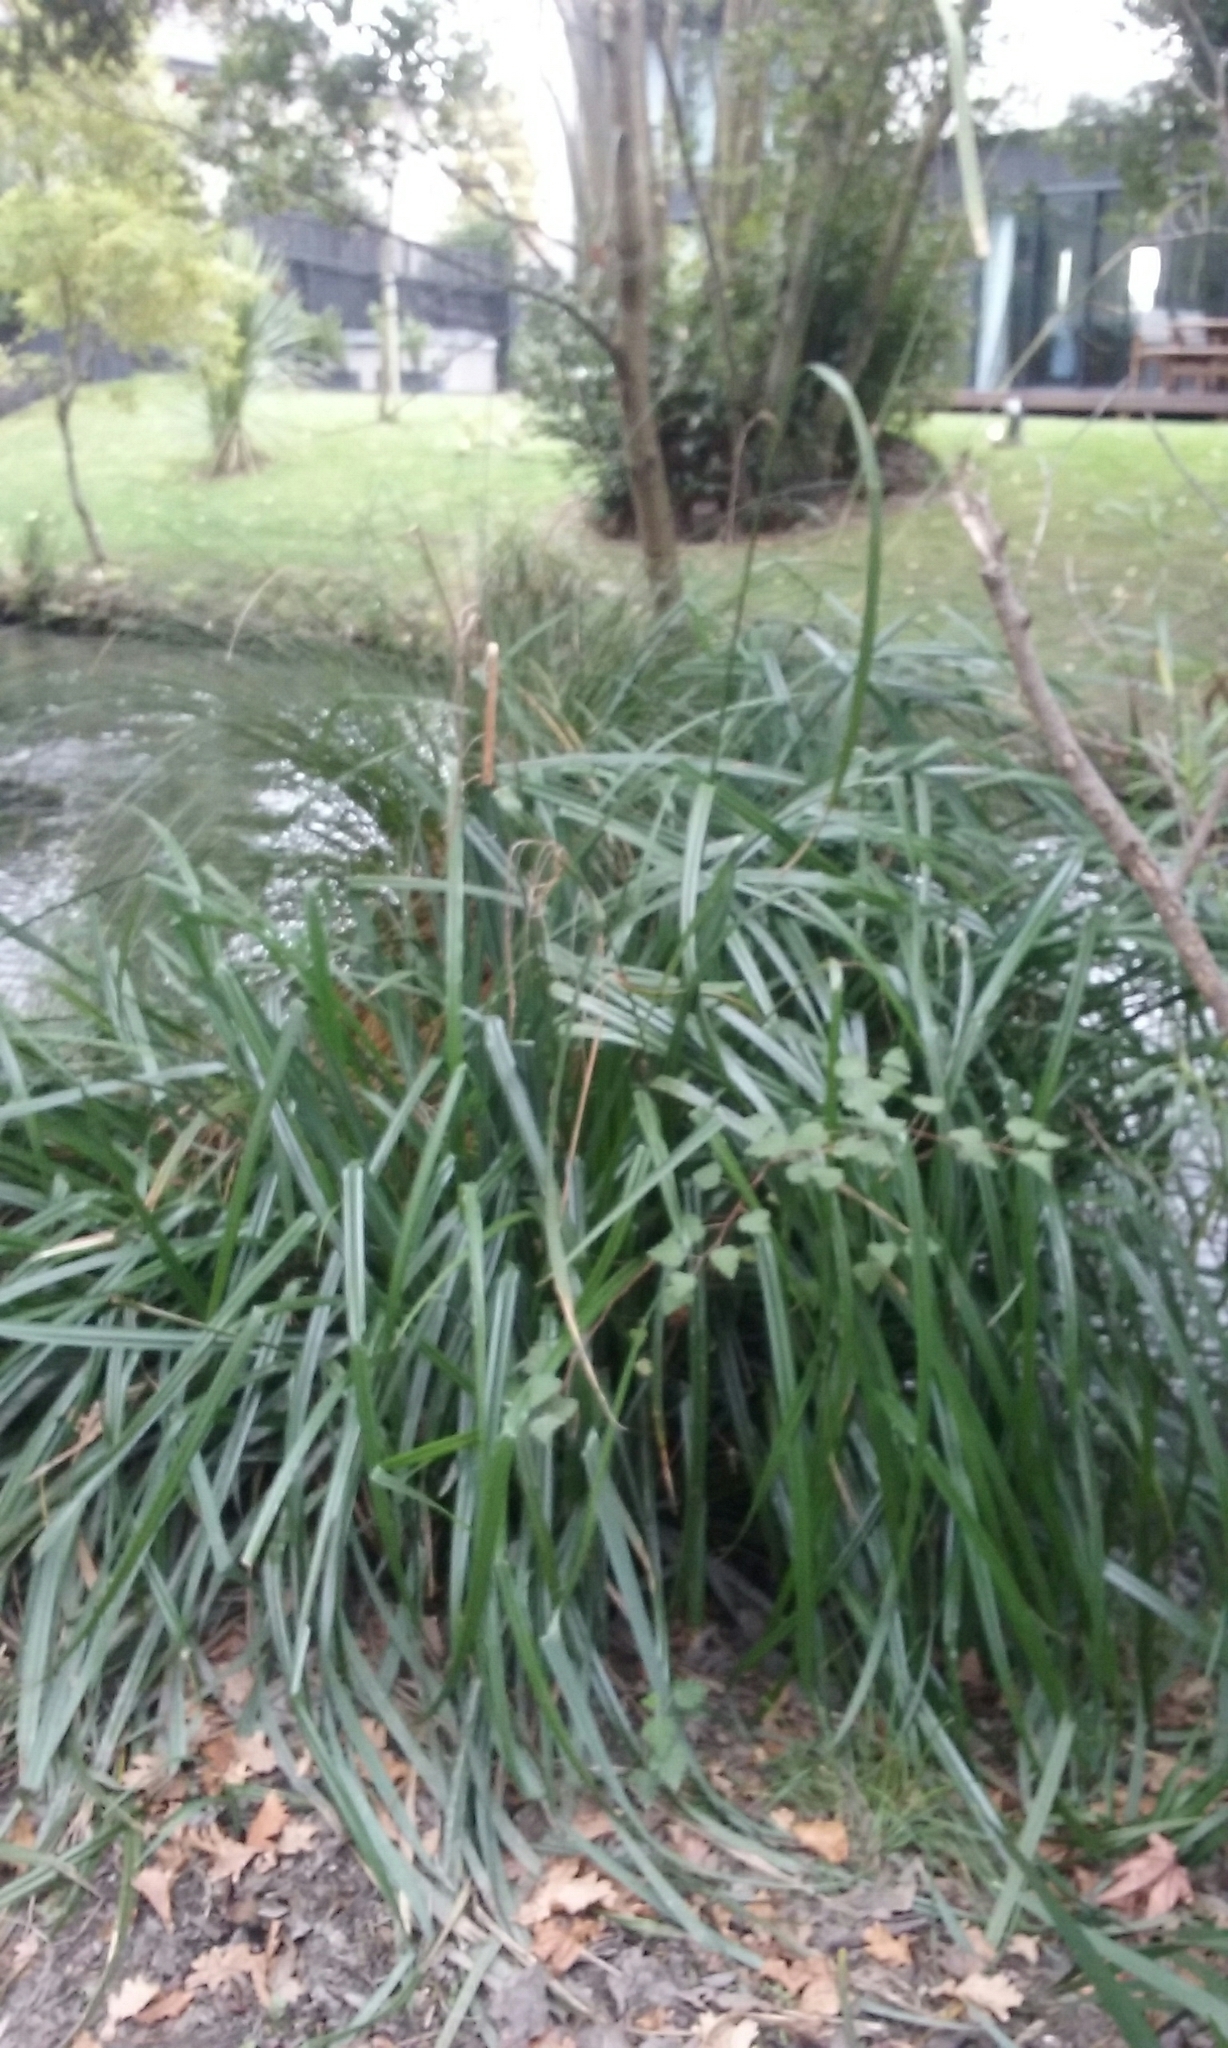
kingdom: Plantae
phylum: Tracheophyta
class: Liliopsida
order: Poales
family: Cyperaceae
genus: Carex
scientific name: Carex pendula
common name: Pendulous sedge
